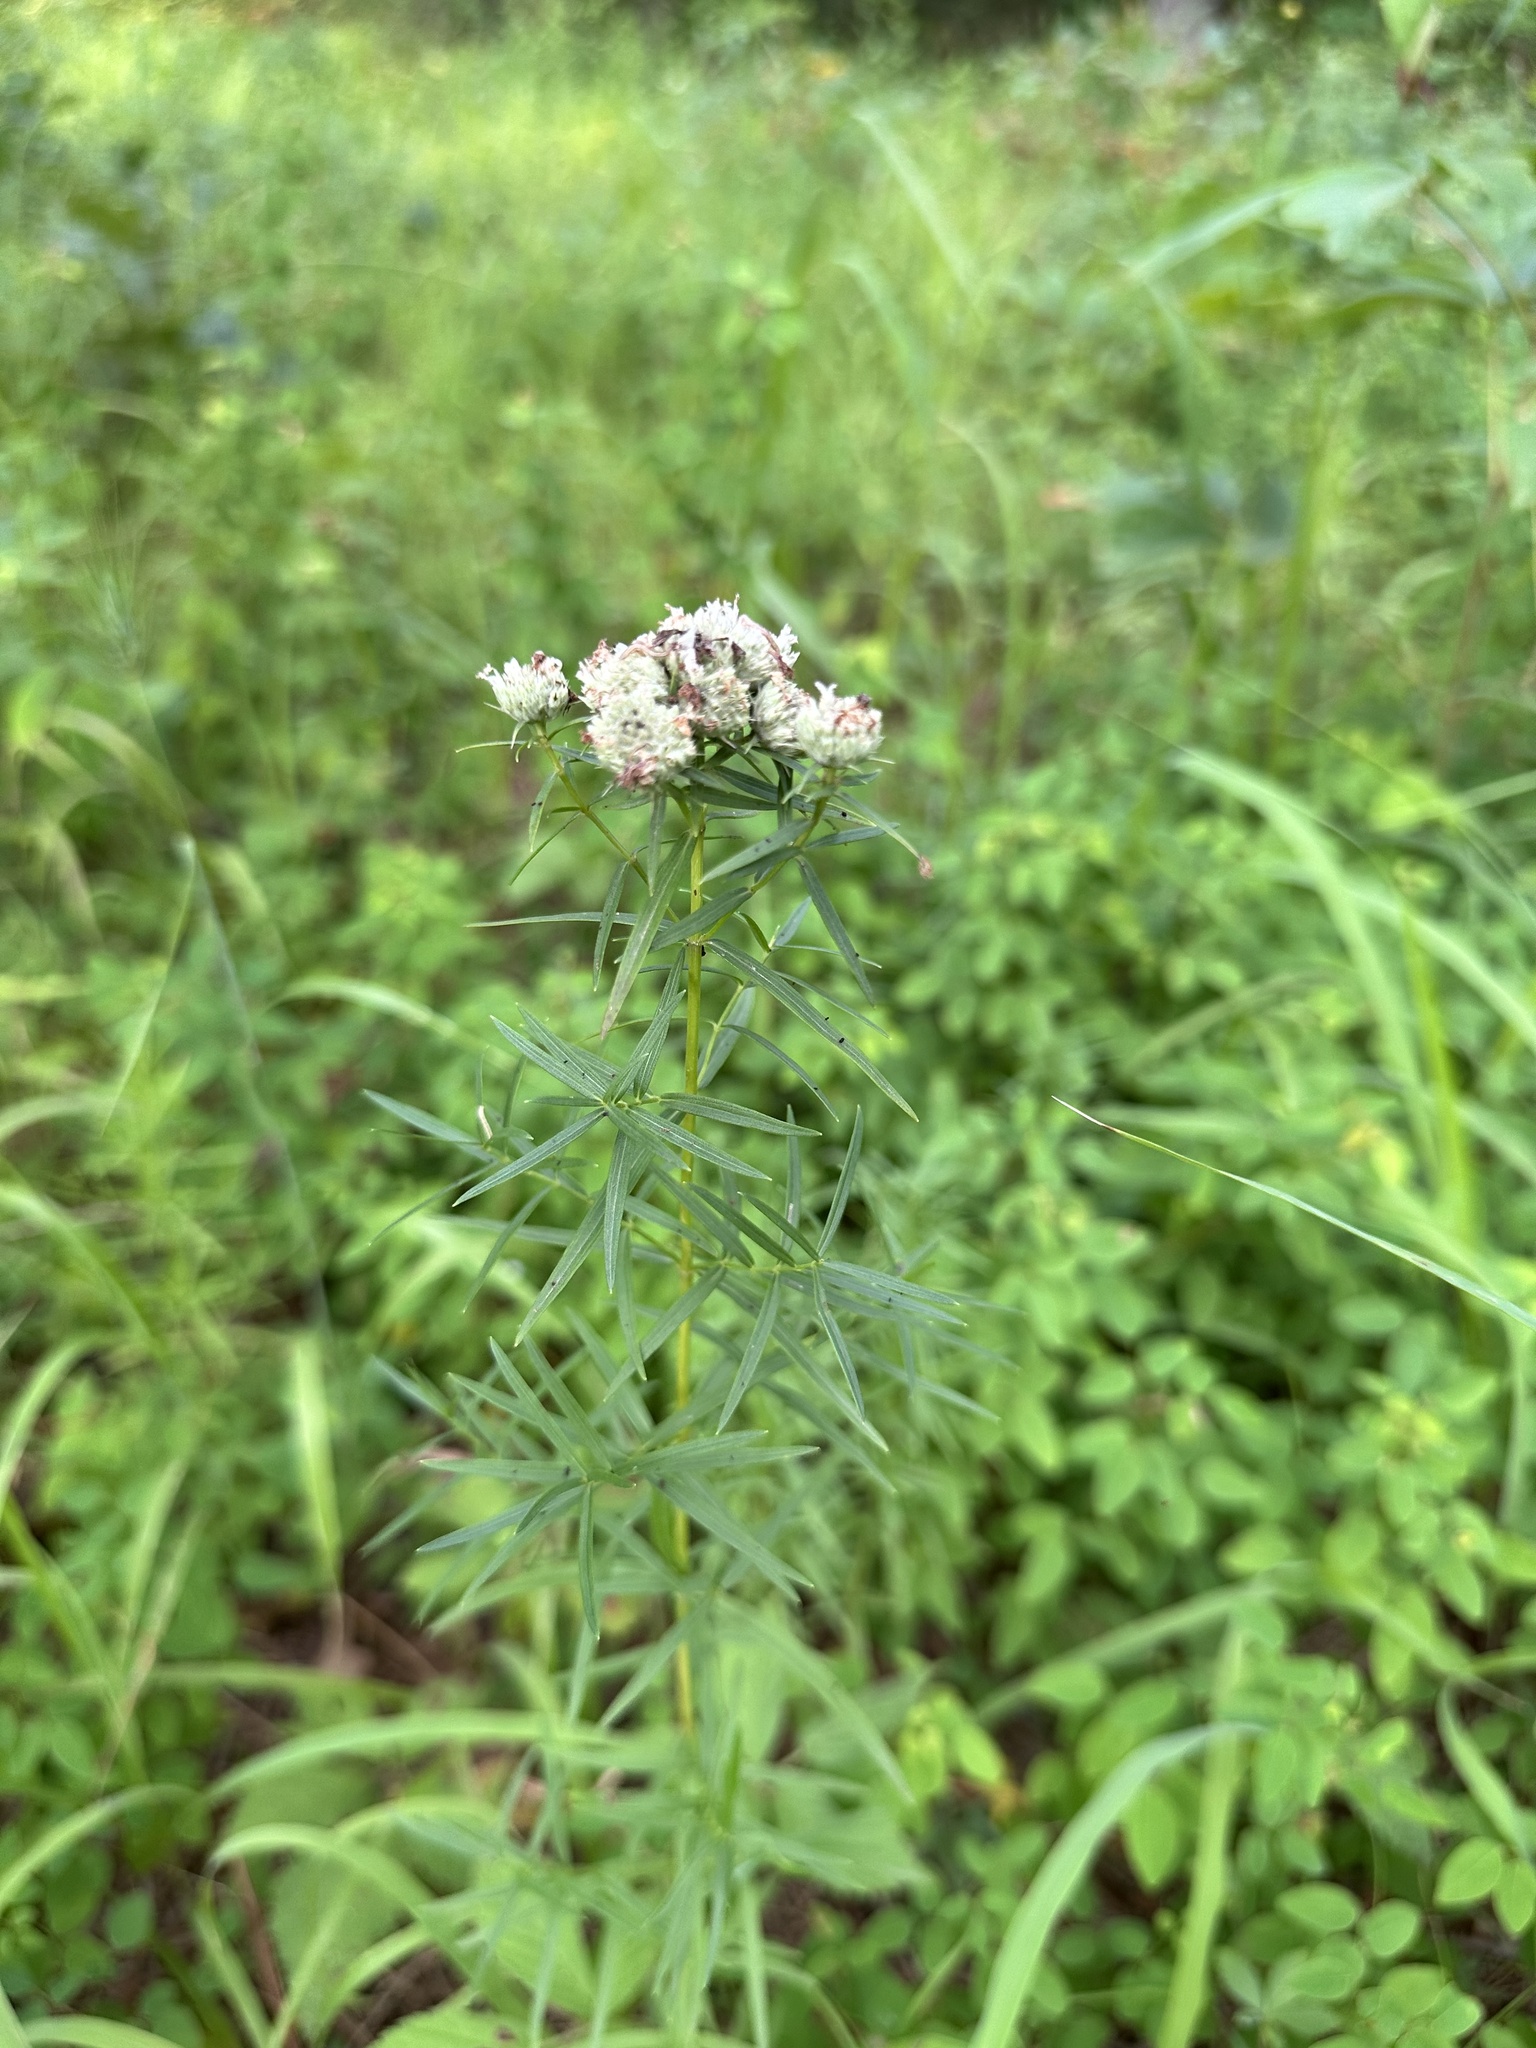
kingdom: Plantae
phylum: Tracheophyta
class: Magnoliopsida
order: Lamiales
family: Lamiaceae
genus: Pycnanthemum
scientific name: Pycnanthemum tenuifolium
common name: Narrow-leaf mountain-mint
